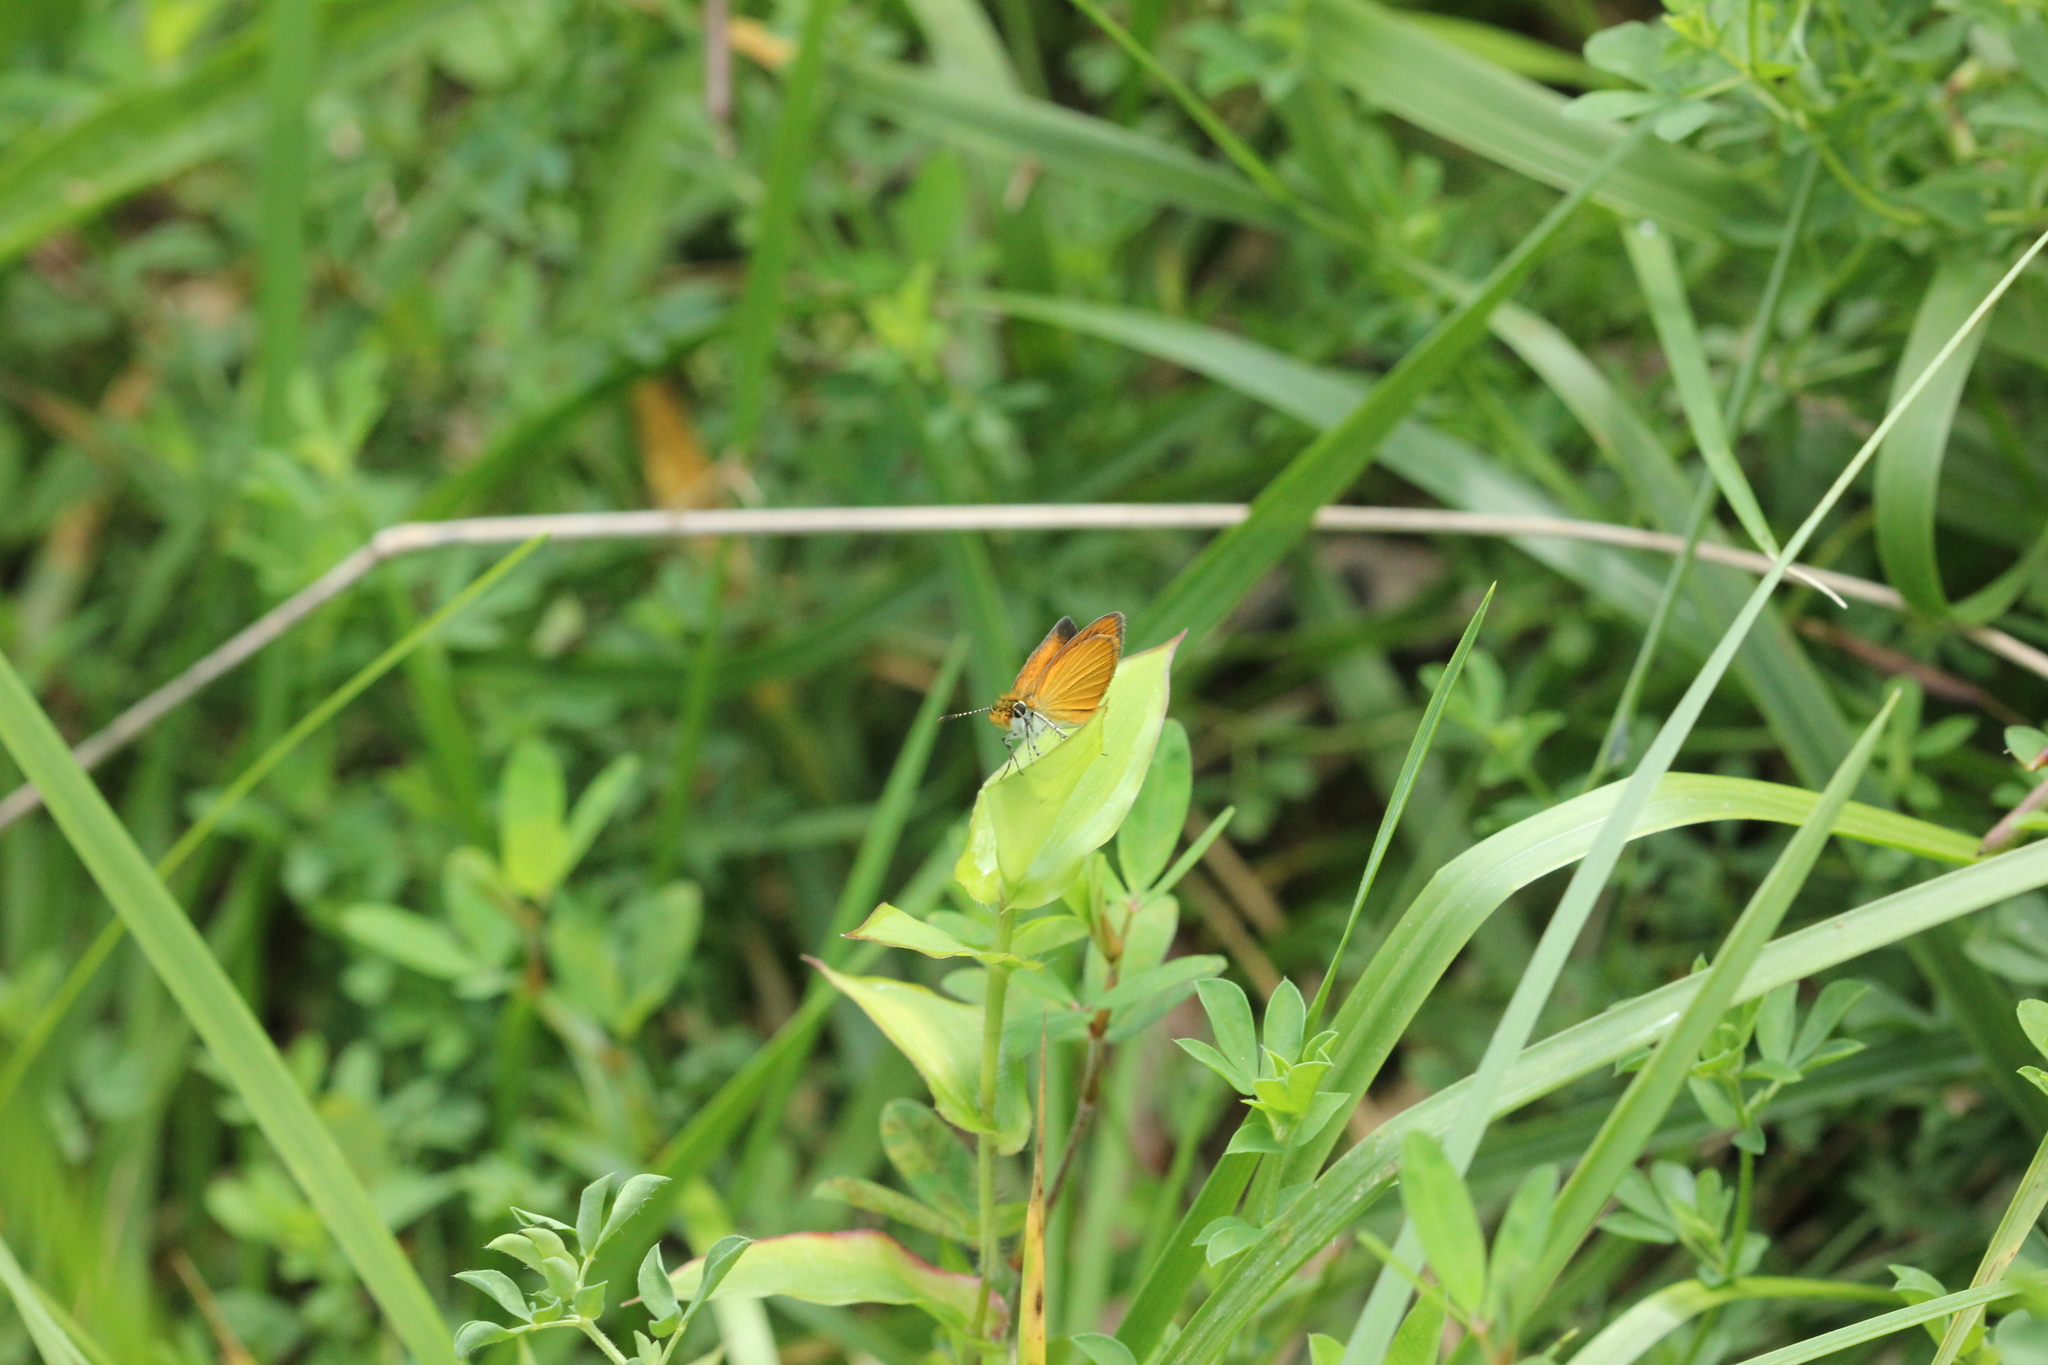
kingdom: Animalia
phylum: Arthropoda
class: Insecta
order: Lepidoptera
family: Hesperiidae
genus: Ancyloxypha
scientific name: Ancyloxypha numitor
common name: Least skipper
